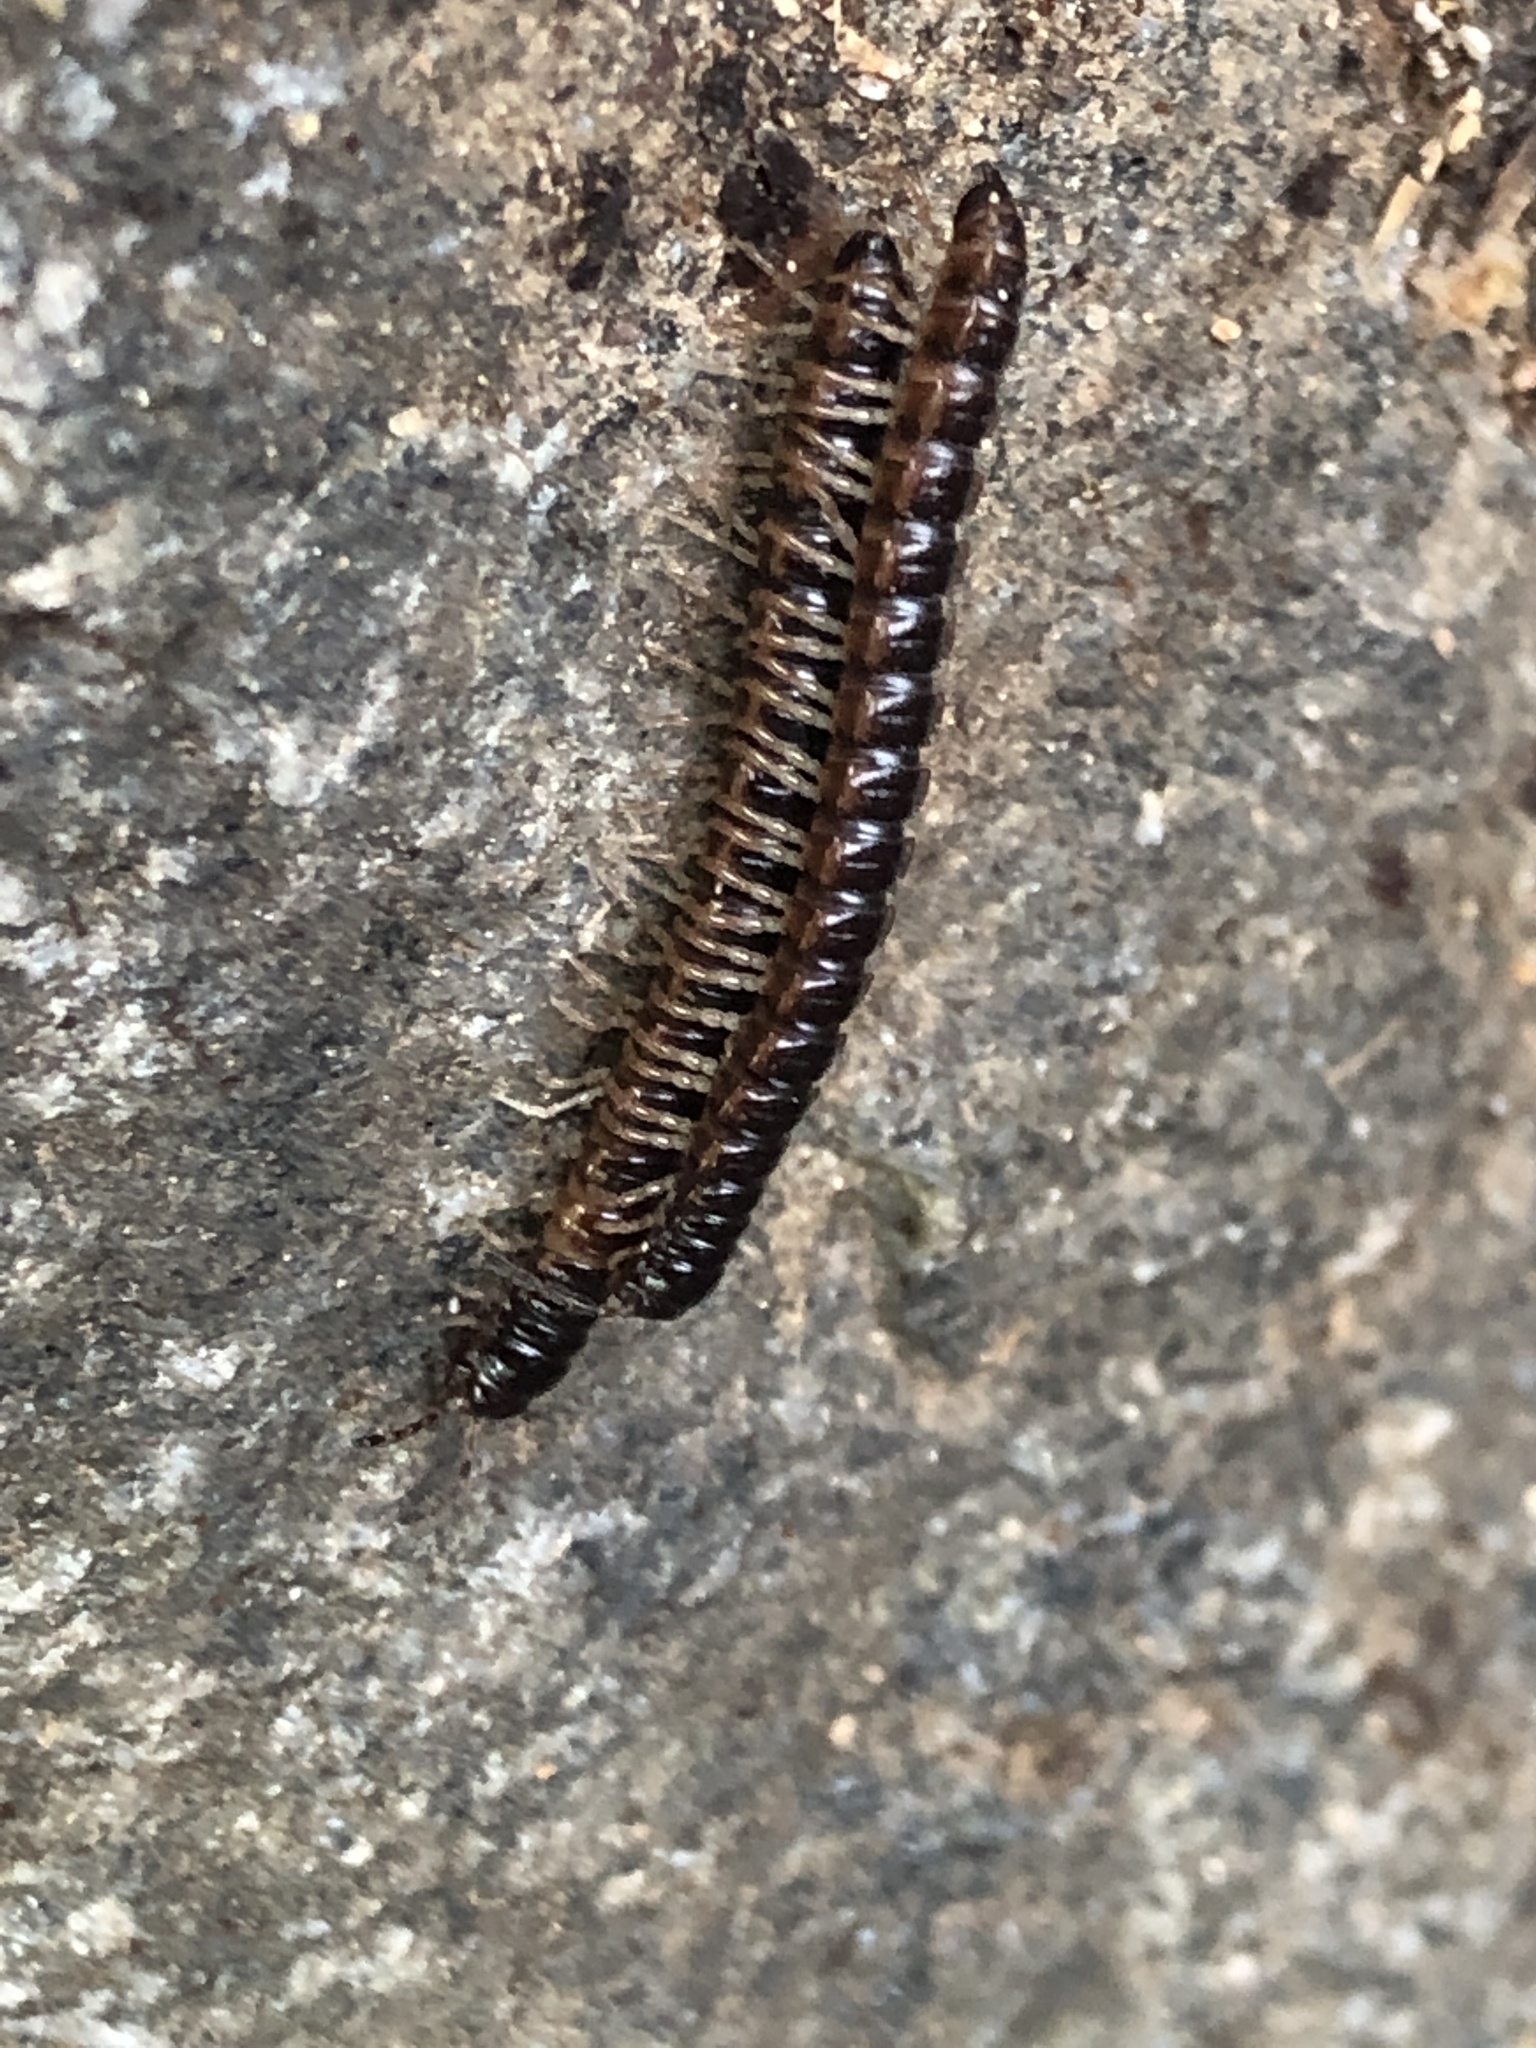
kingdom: Animalia
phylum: Arthropoda
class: Diplopoda
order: Polydesmida
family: Paradoxosomatidae
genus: Oxidus
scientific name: Oxidus gracilis
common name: Greenhouse millipede
